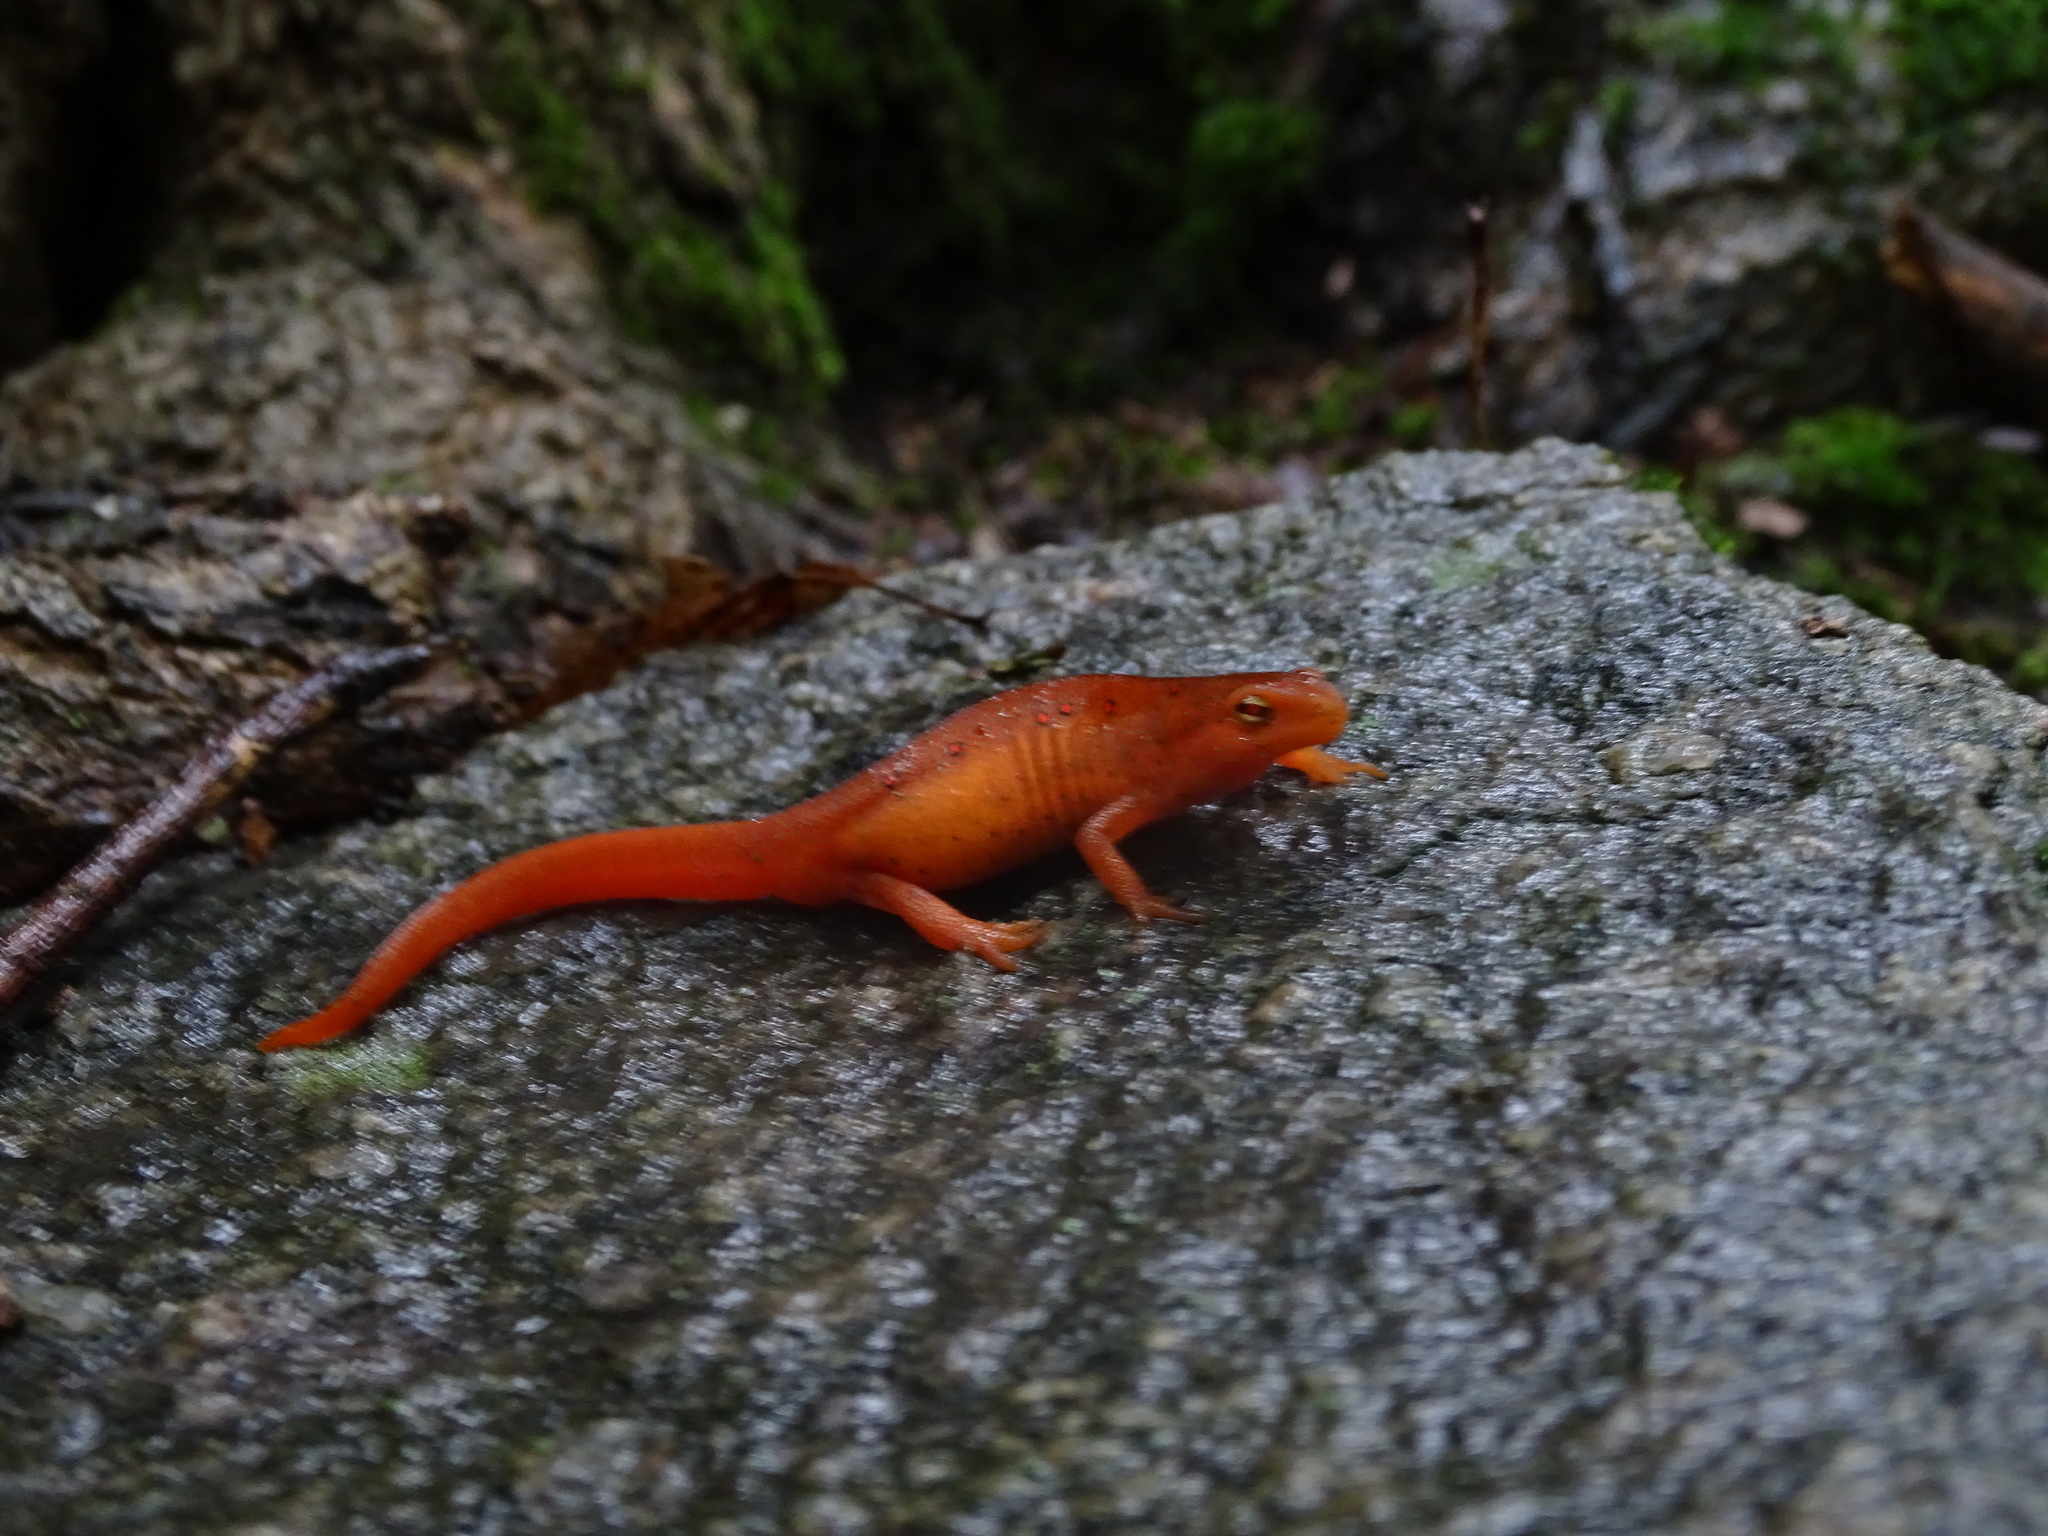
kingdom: Animalia
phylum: Chordata
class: Amphibia
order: Caudata
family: Salamandridae
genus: Notophthalmus
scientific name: Notophthalmus viridescens
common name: Eastern newt
